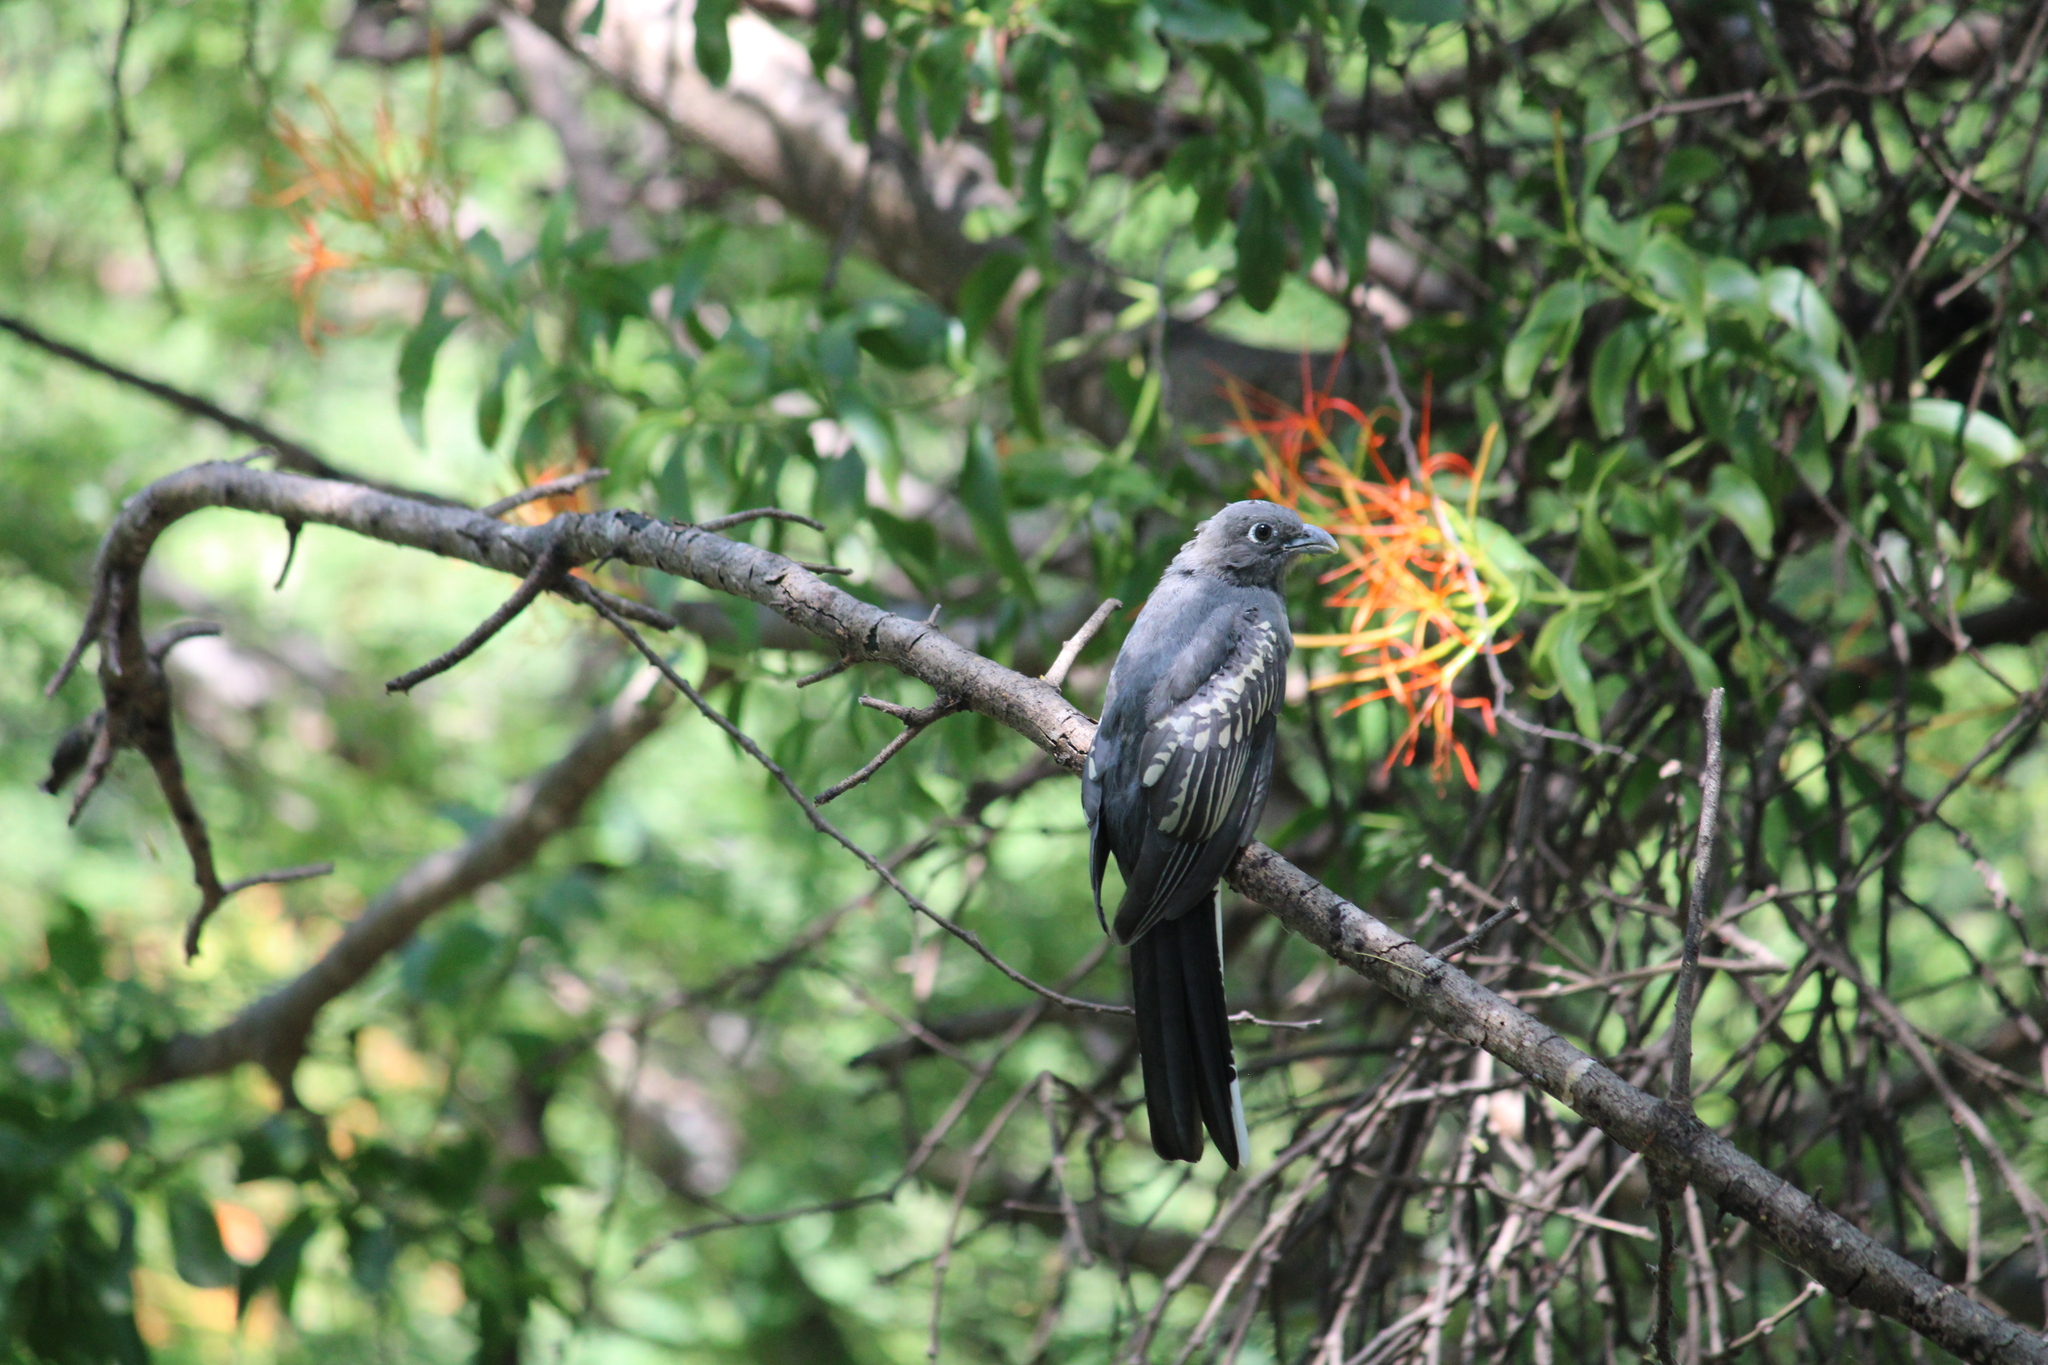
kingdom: Animalia
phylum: Chordata
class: Aves
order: Trogoniformes
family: Trogonidae
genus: Trogon
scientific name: Trogon citreolus
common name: Citreoline trogon
